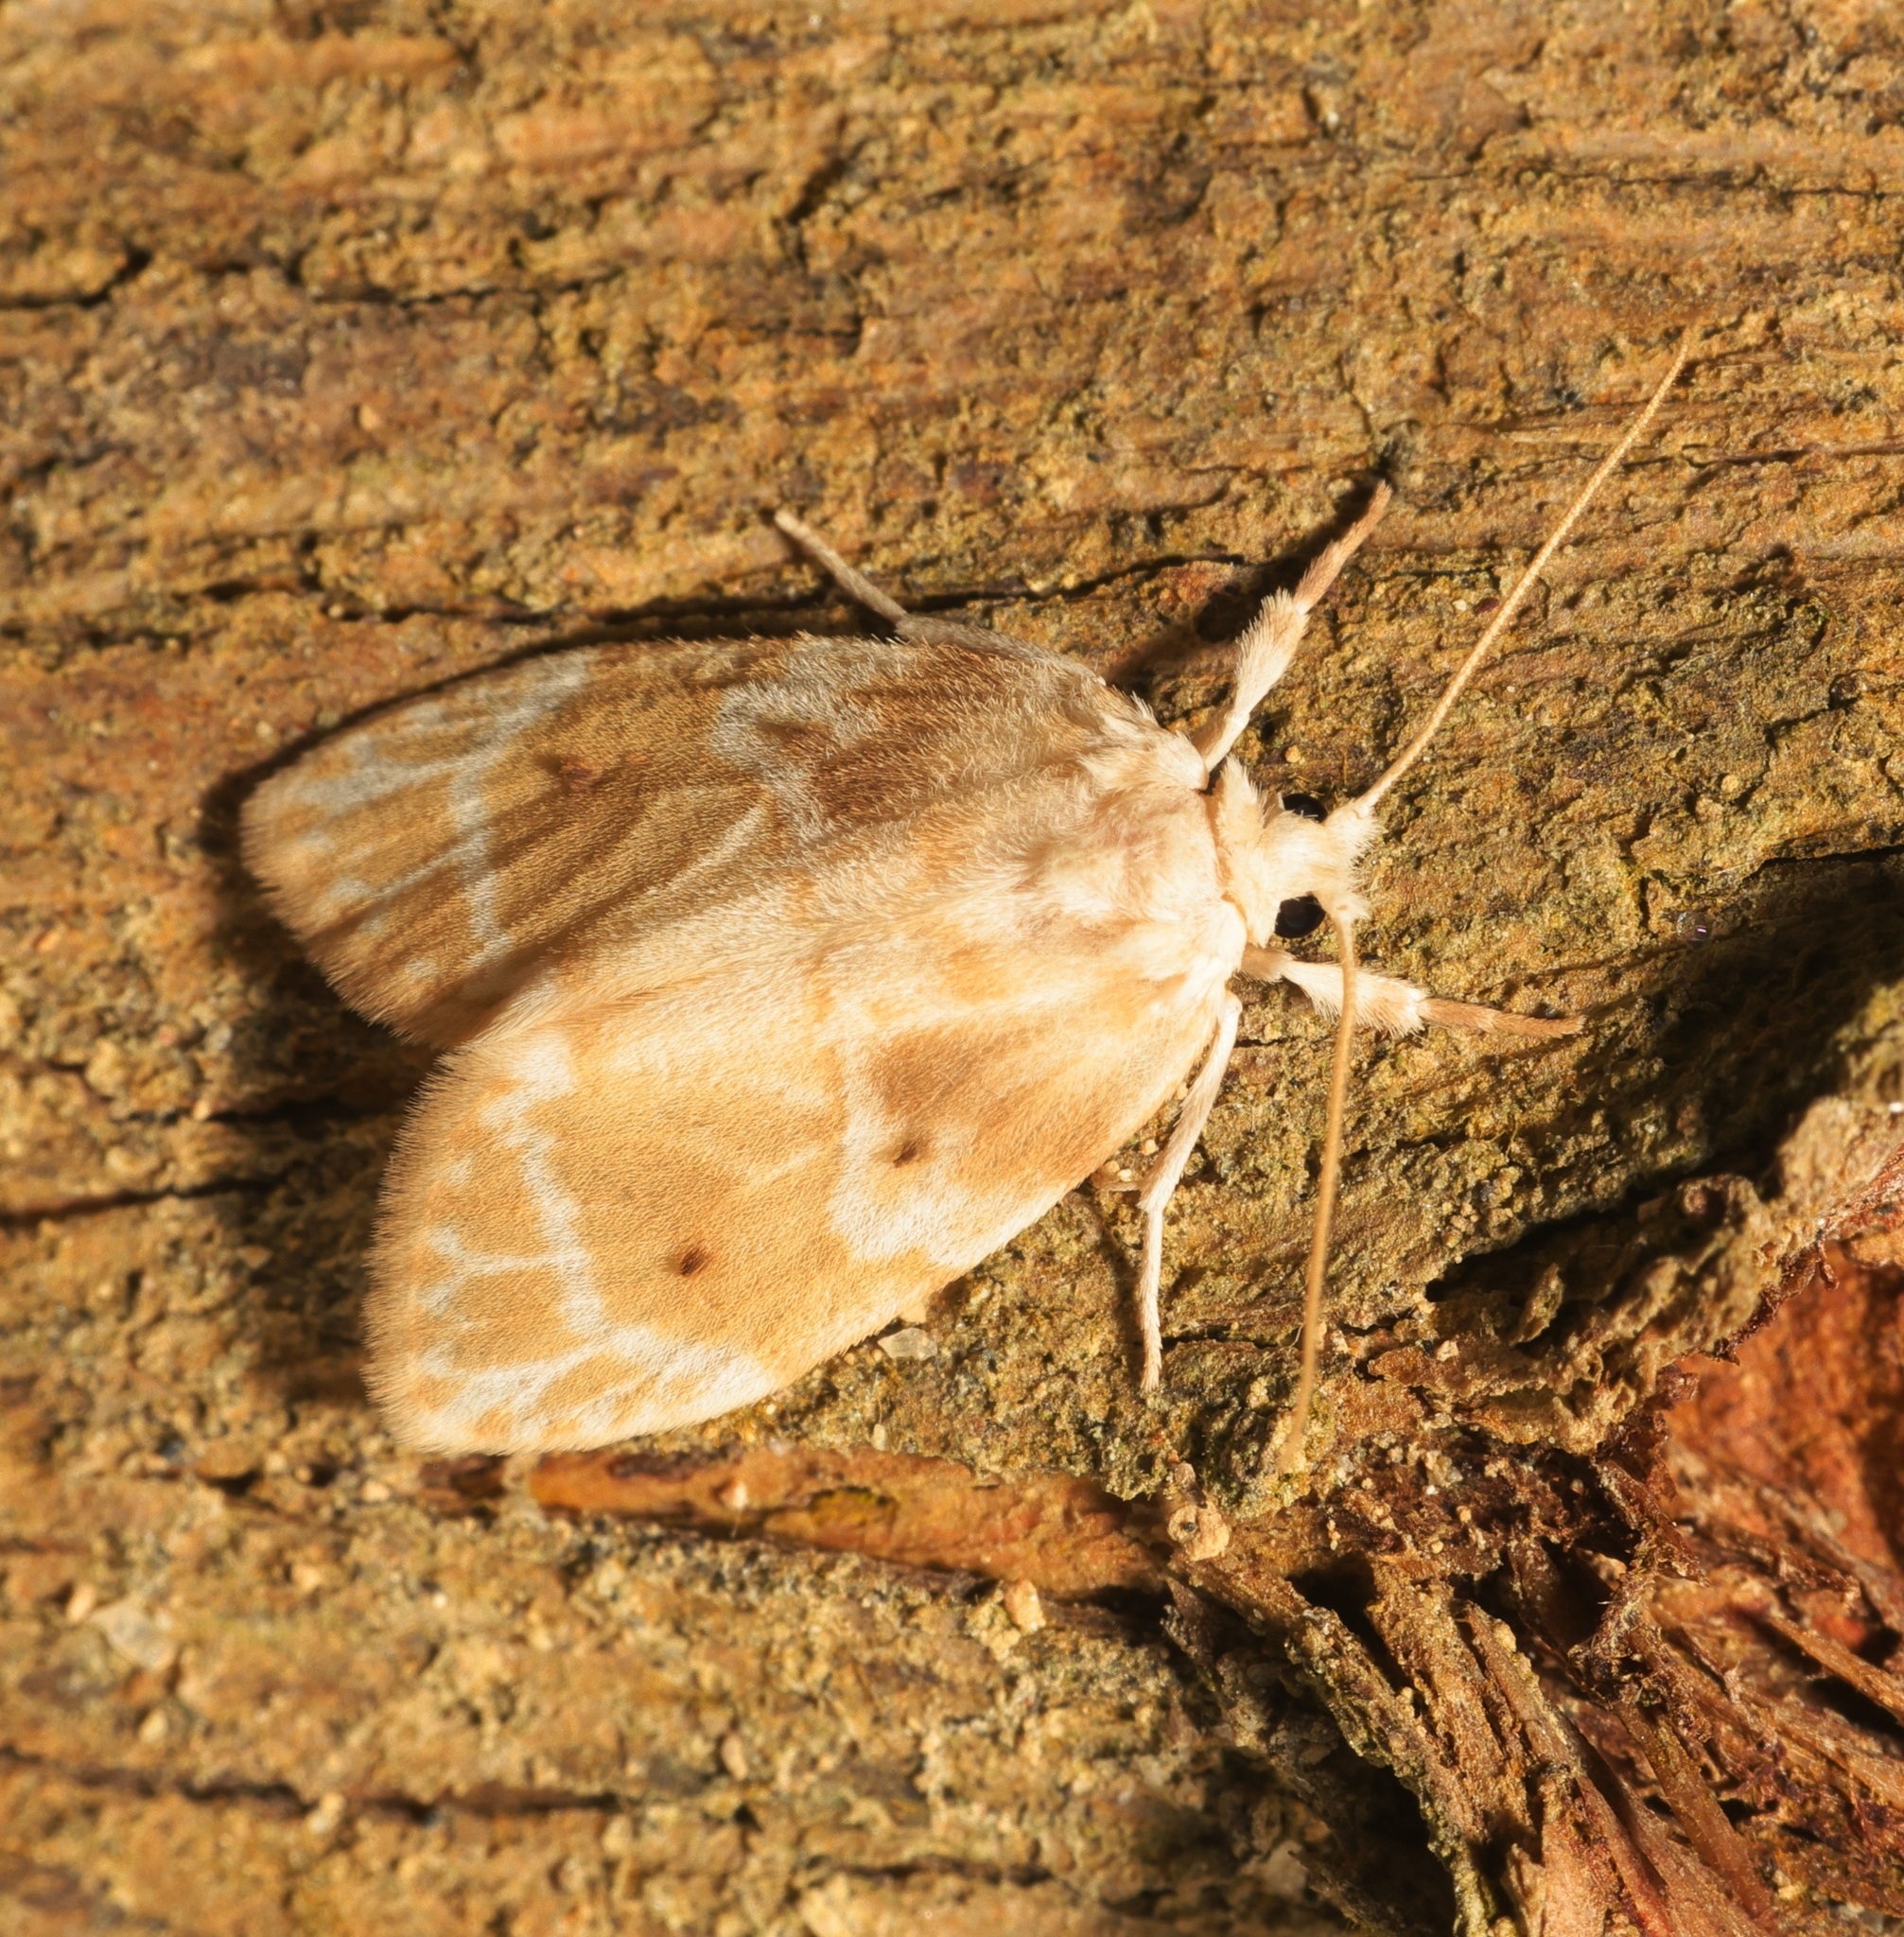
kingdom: Animalia
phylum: Arthropoda
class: Insecta
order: Lepidoptera
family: Erebidae
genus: Schistophleps
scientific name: Schistophleps bipuncta
